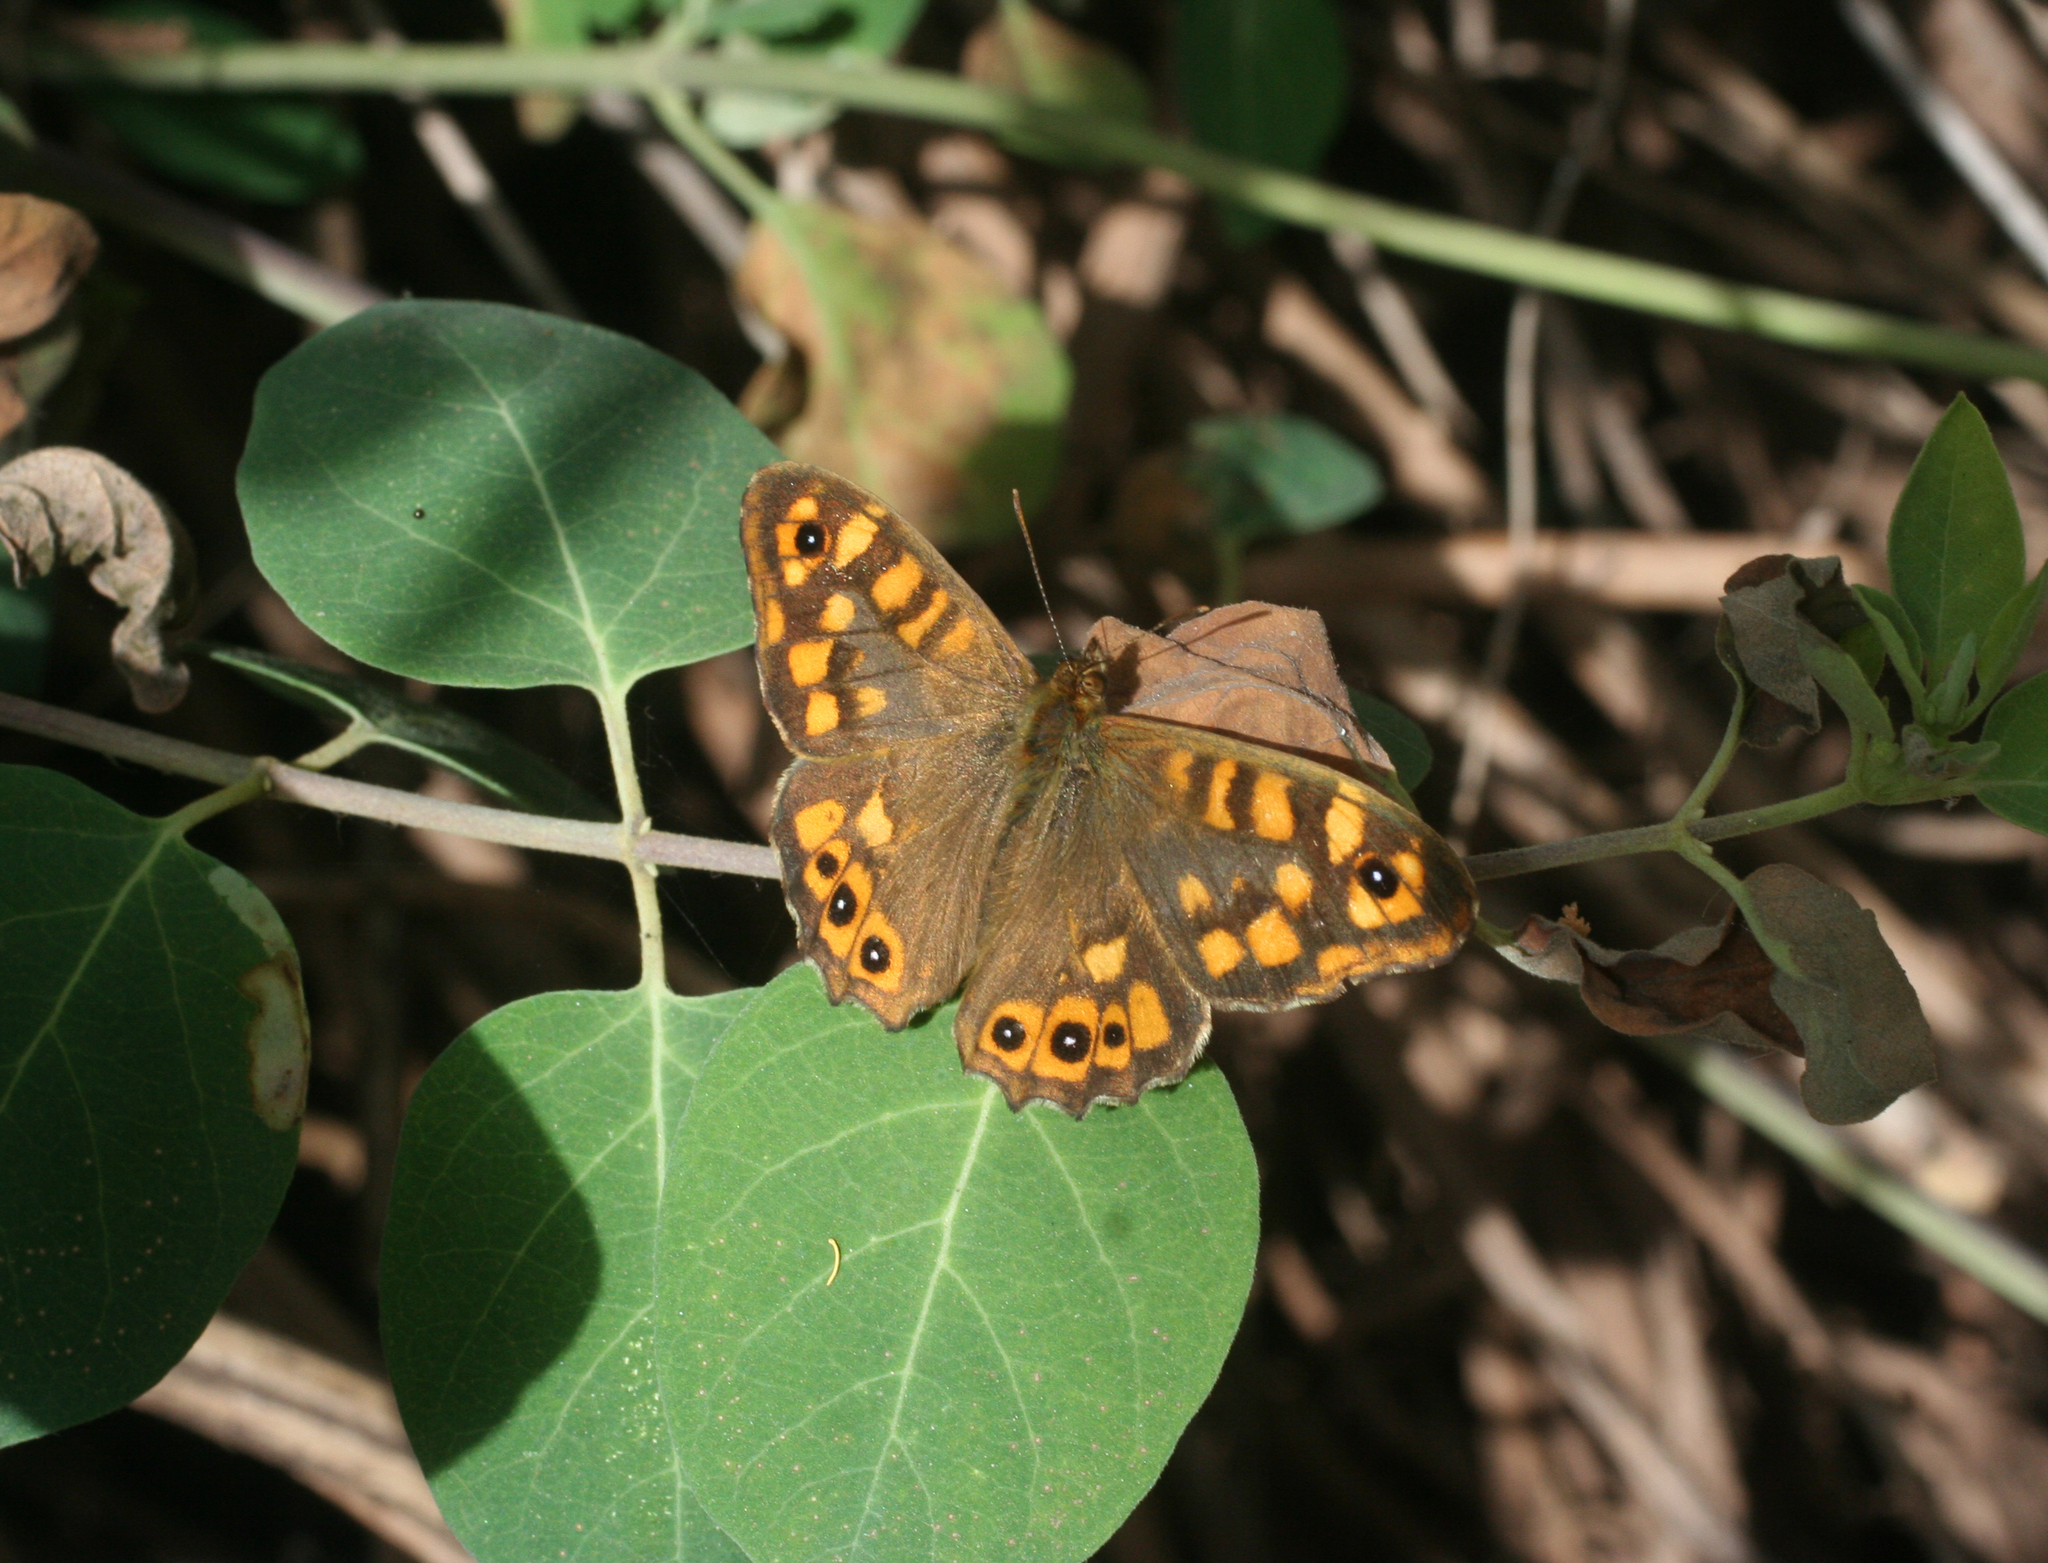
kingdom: Animalia
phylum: Arthropoda
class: Insecta
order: Lepidoptera
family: Nymphalidae
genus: Pararge
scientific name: Pararge aegeria
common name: Speckled wood
